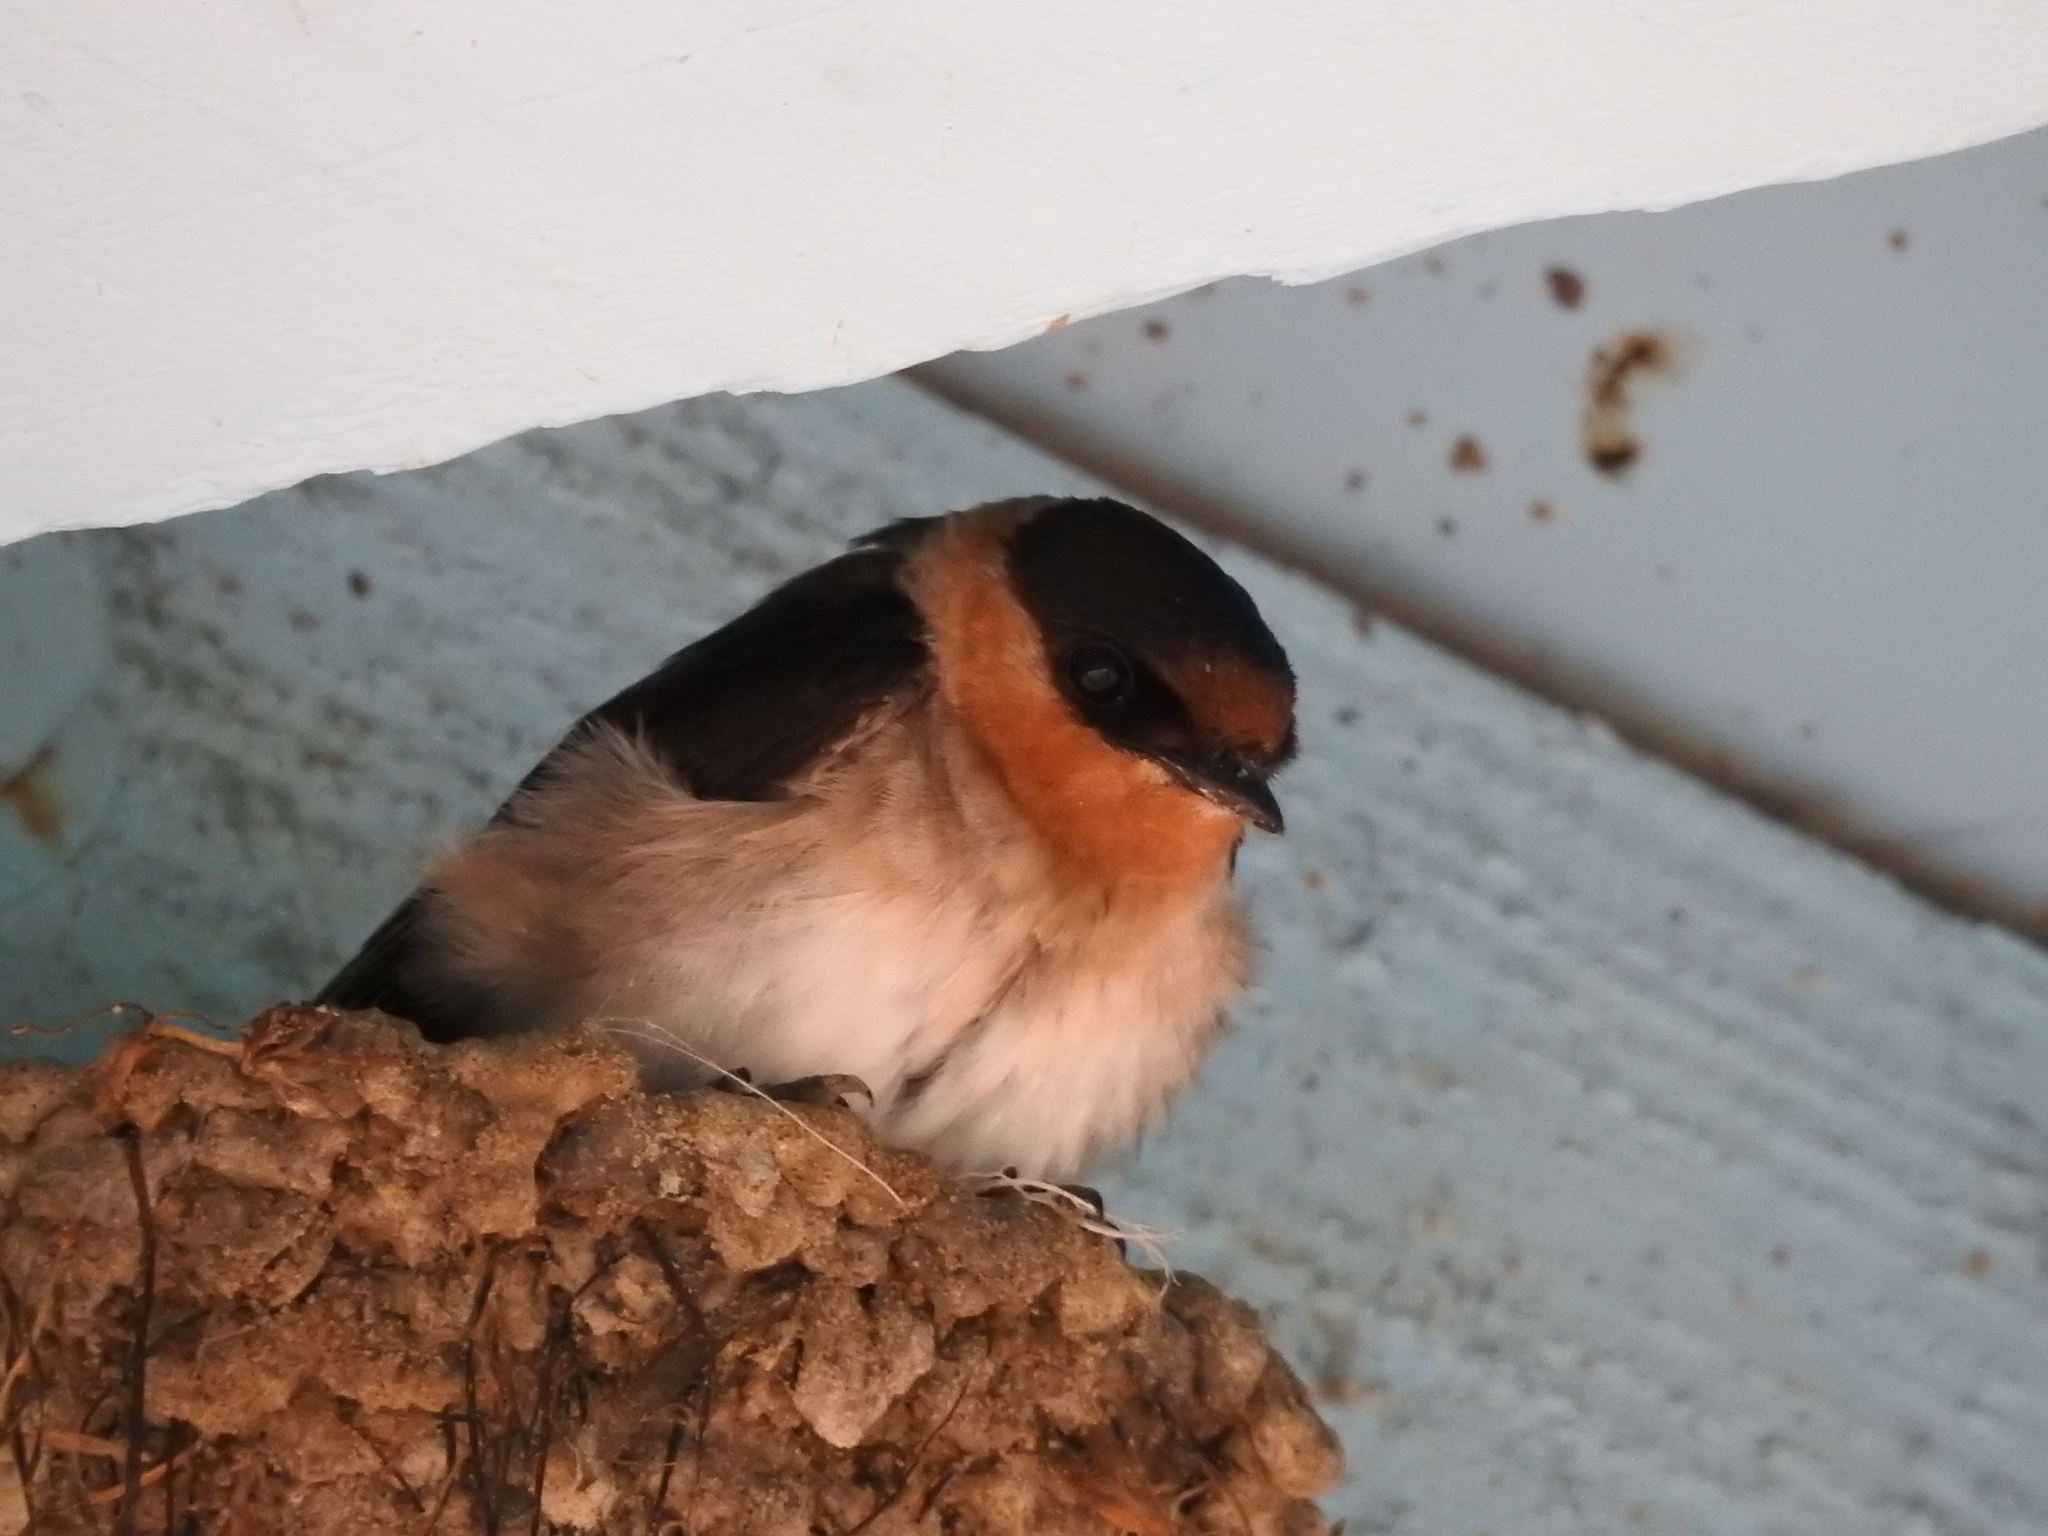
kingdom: Animalia
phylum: Chordata
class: Aves
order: Passeriformes
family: Hirundinidae
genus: Petrochelidon
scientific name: Petrochelidon fulva
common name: Cave swallow
